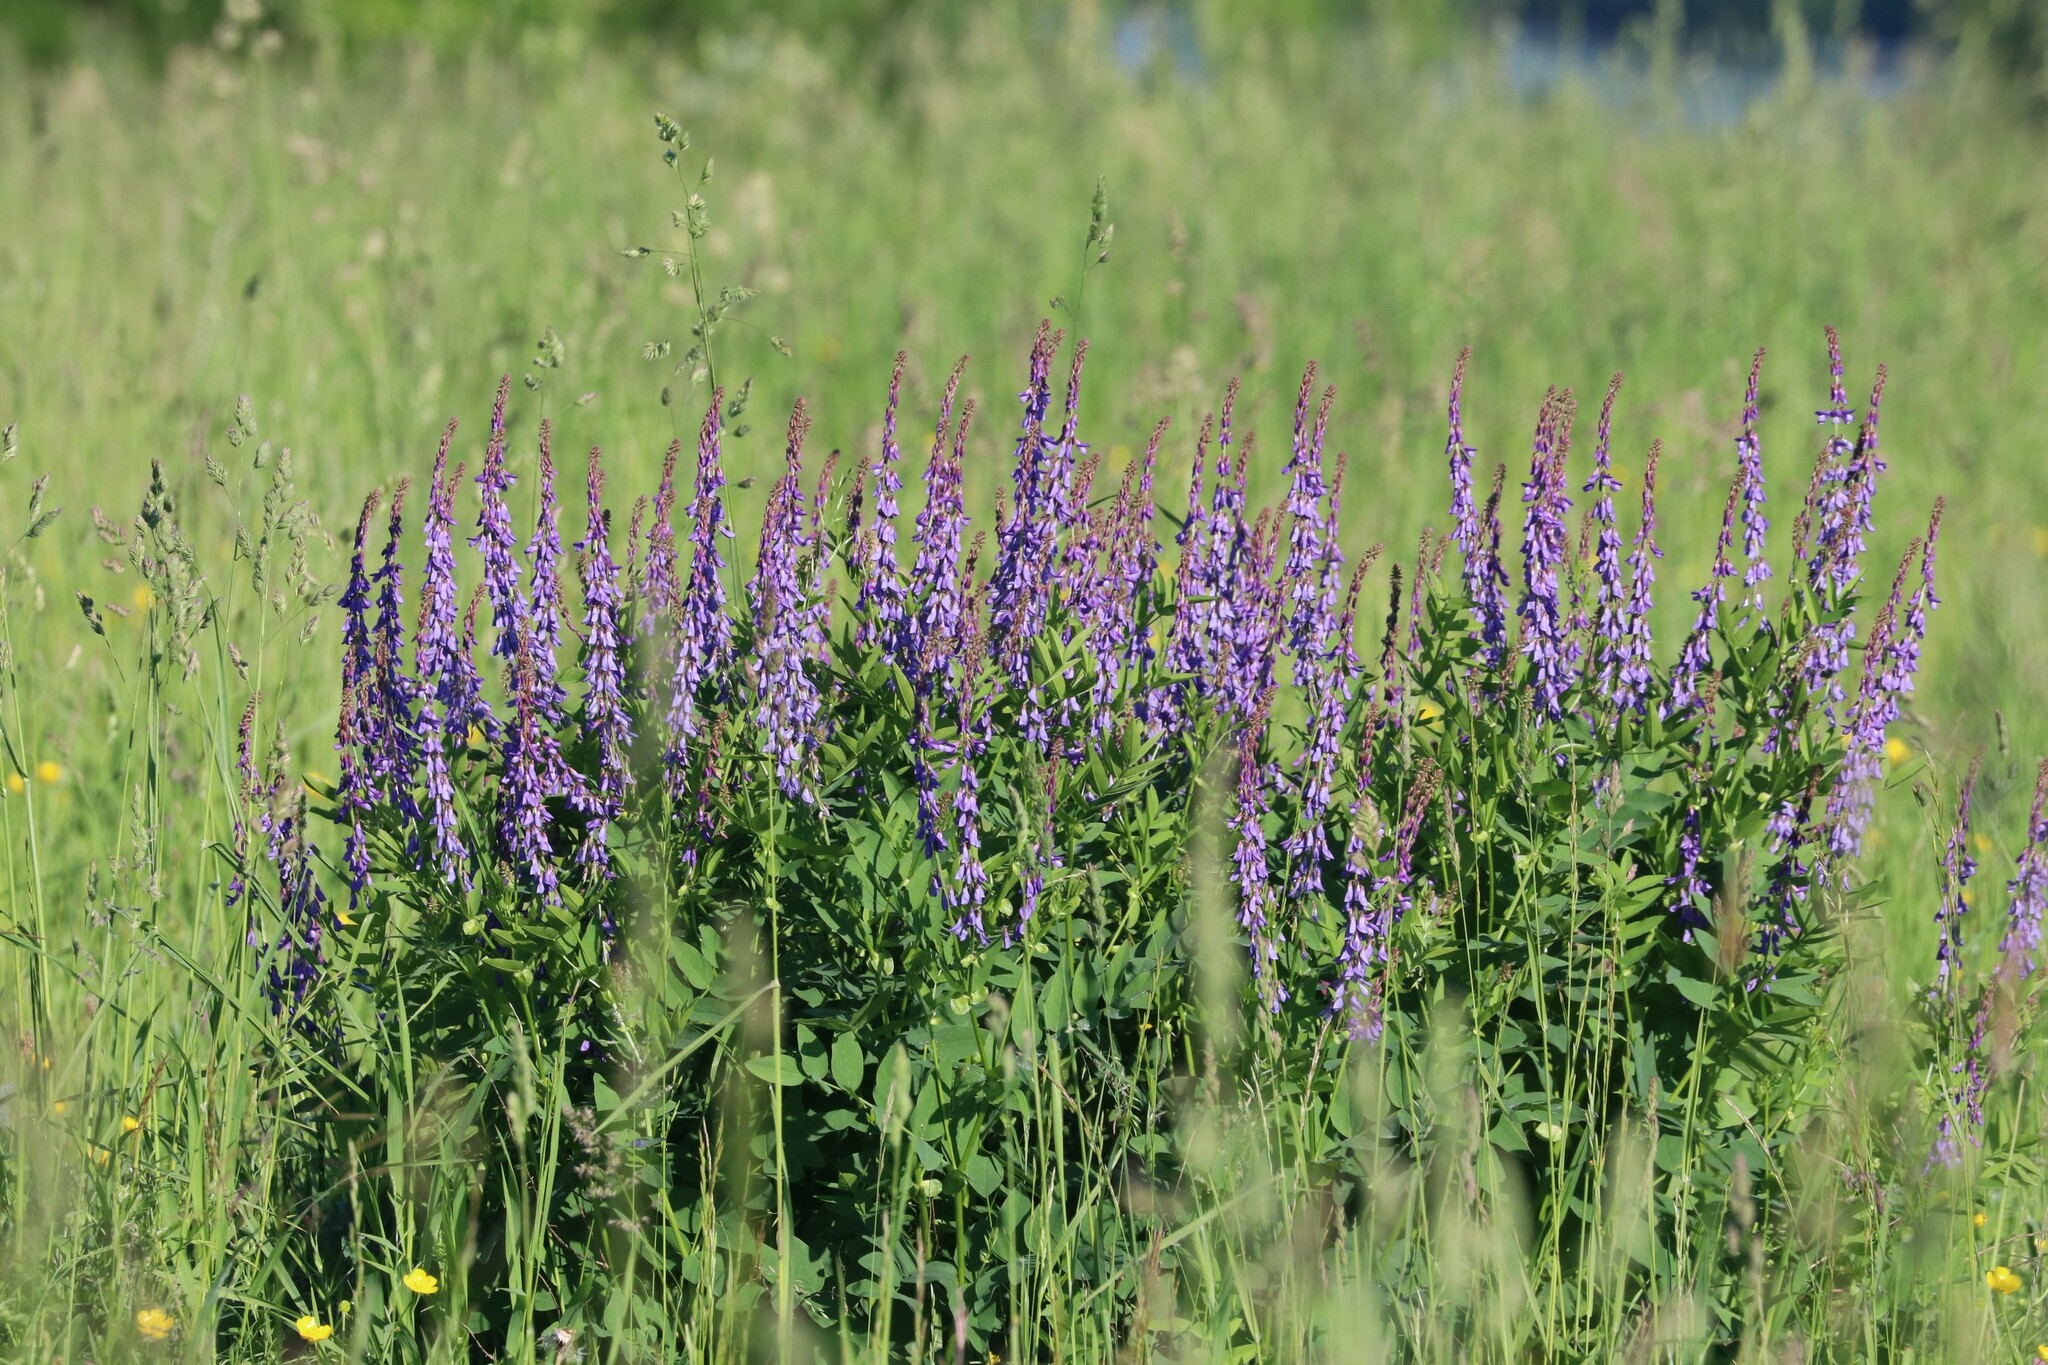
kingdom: Plantae
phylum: Tracheophyta
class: Magnoliopsida
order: Fabales
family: Fabaceae
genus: Galega
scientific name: Galega orientalis
